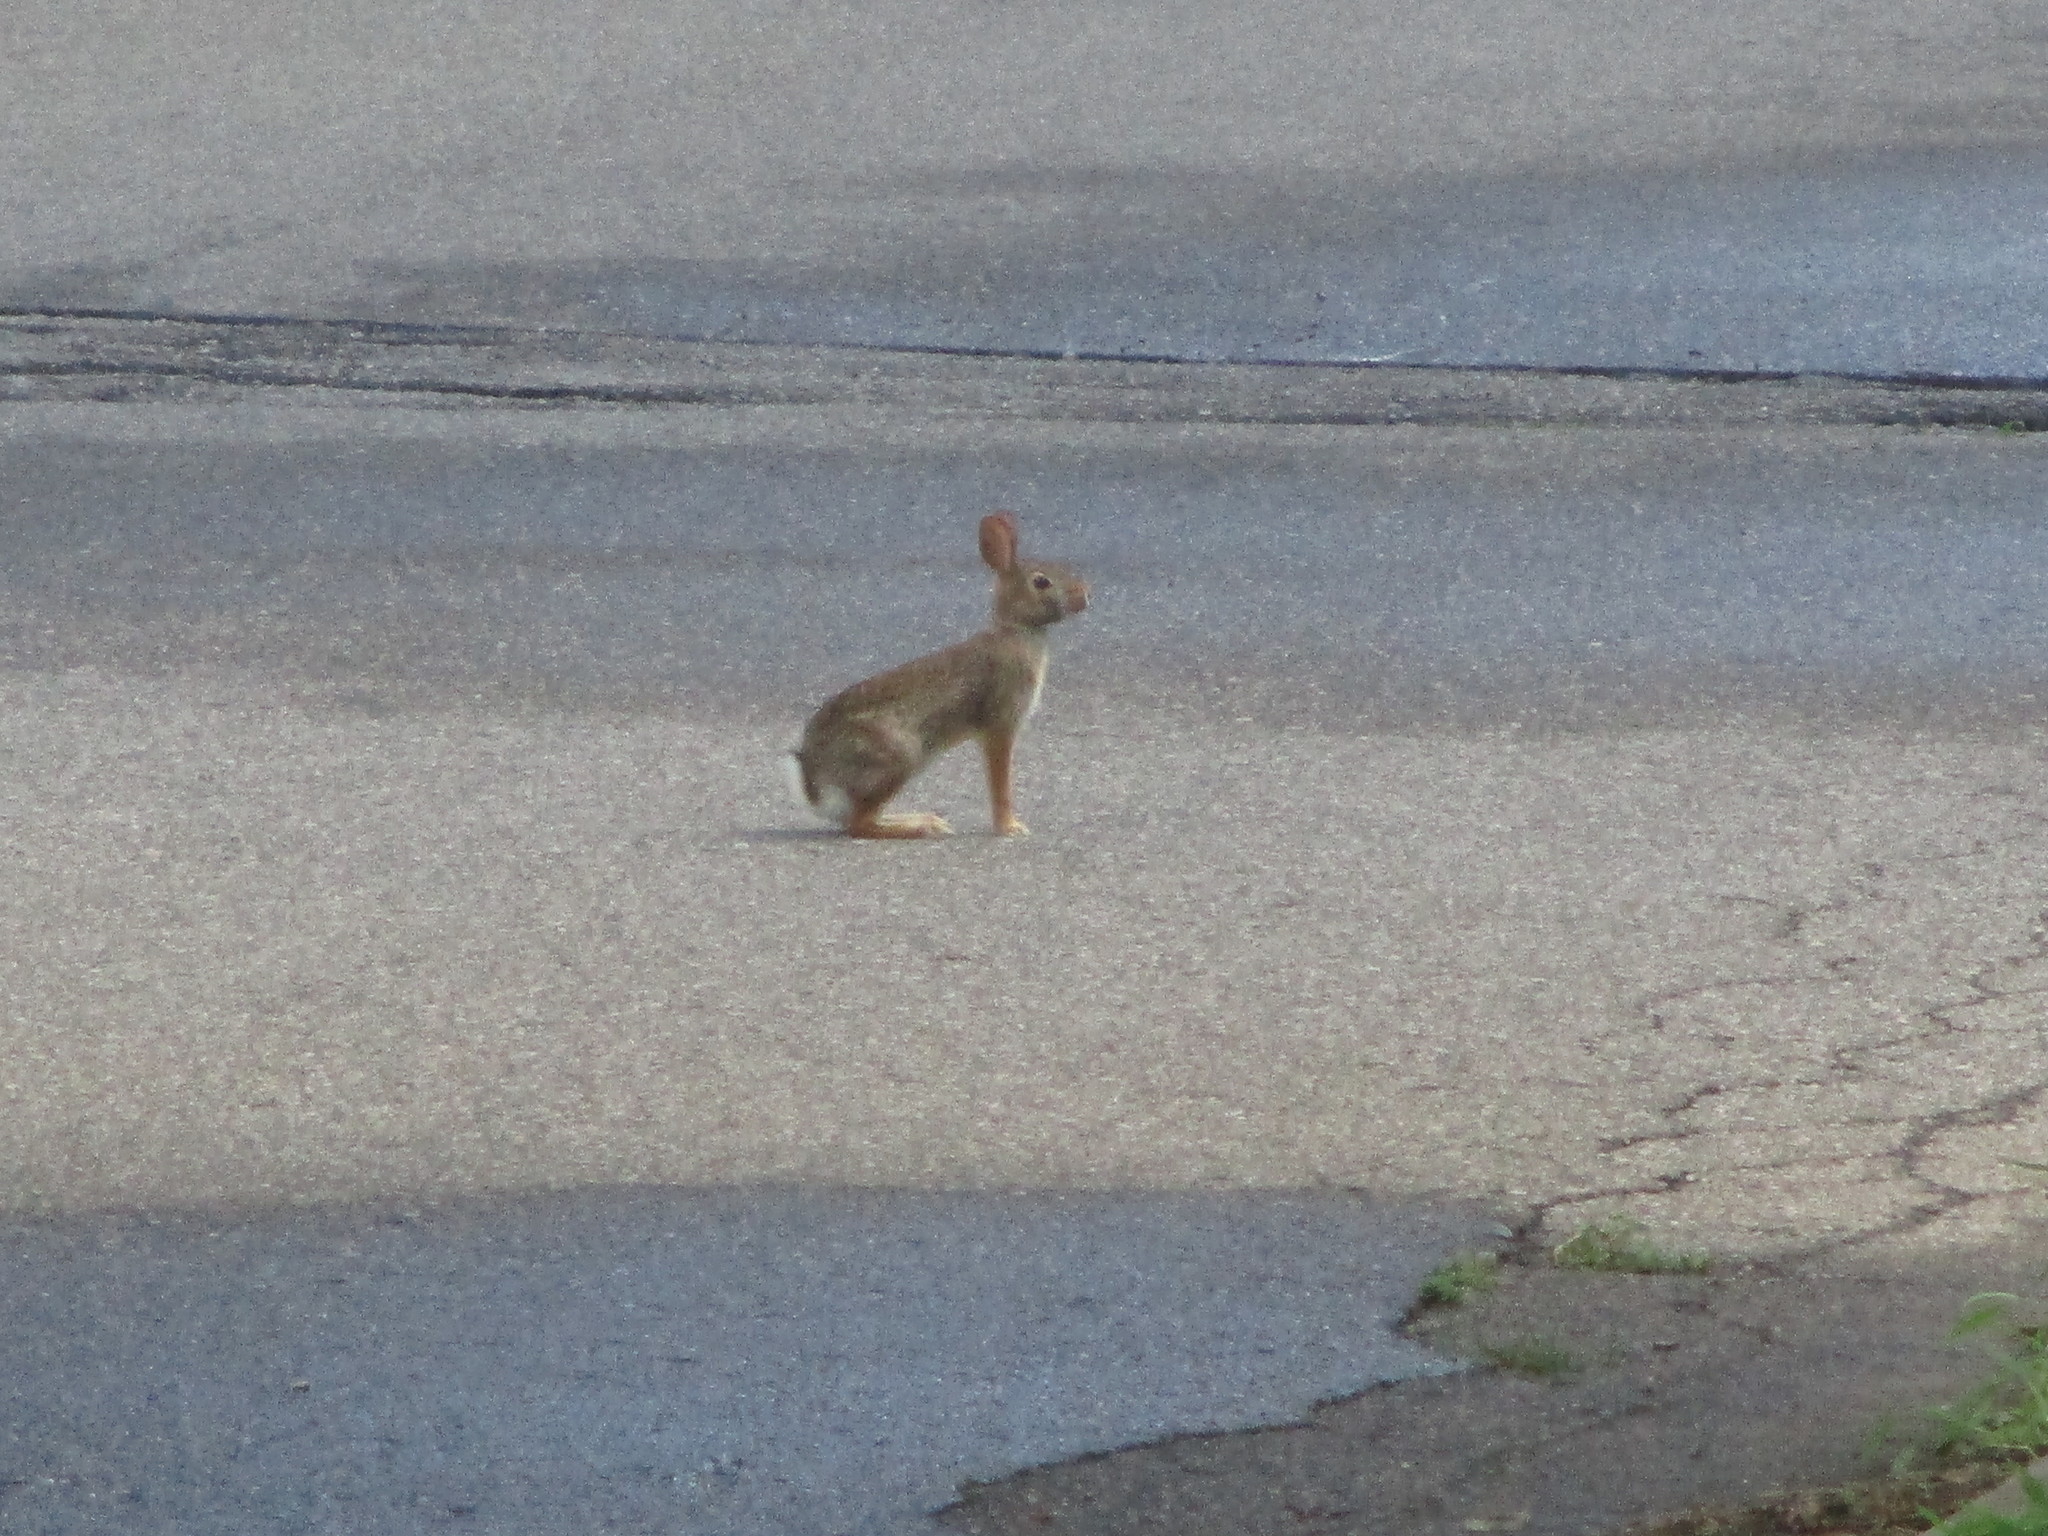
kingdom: Animalia
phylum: Chordata
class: Mammalia
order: Lagomorpha
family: Leporidae
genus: Sylvilagus
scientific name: Sylvilagus floridanus
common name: Eastern cottontail
